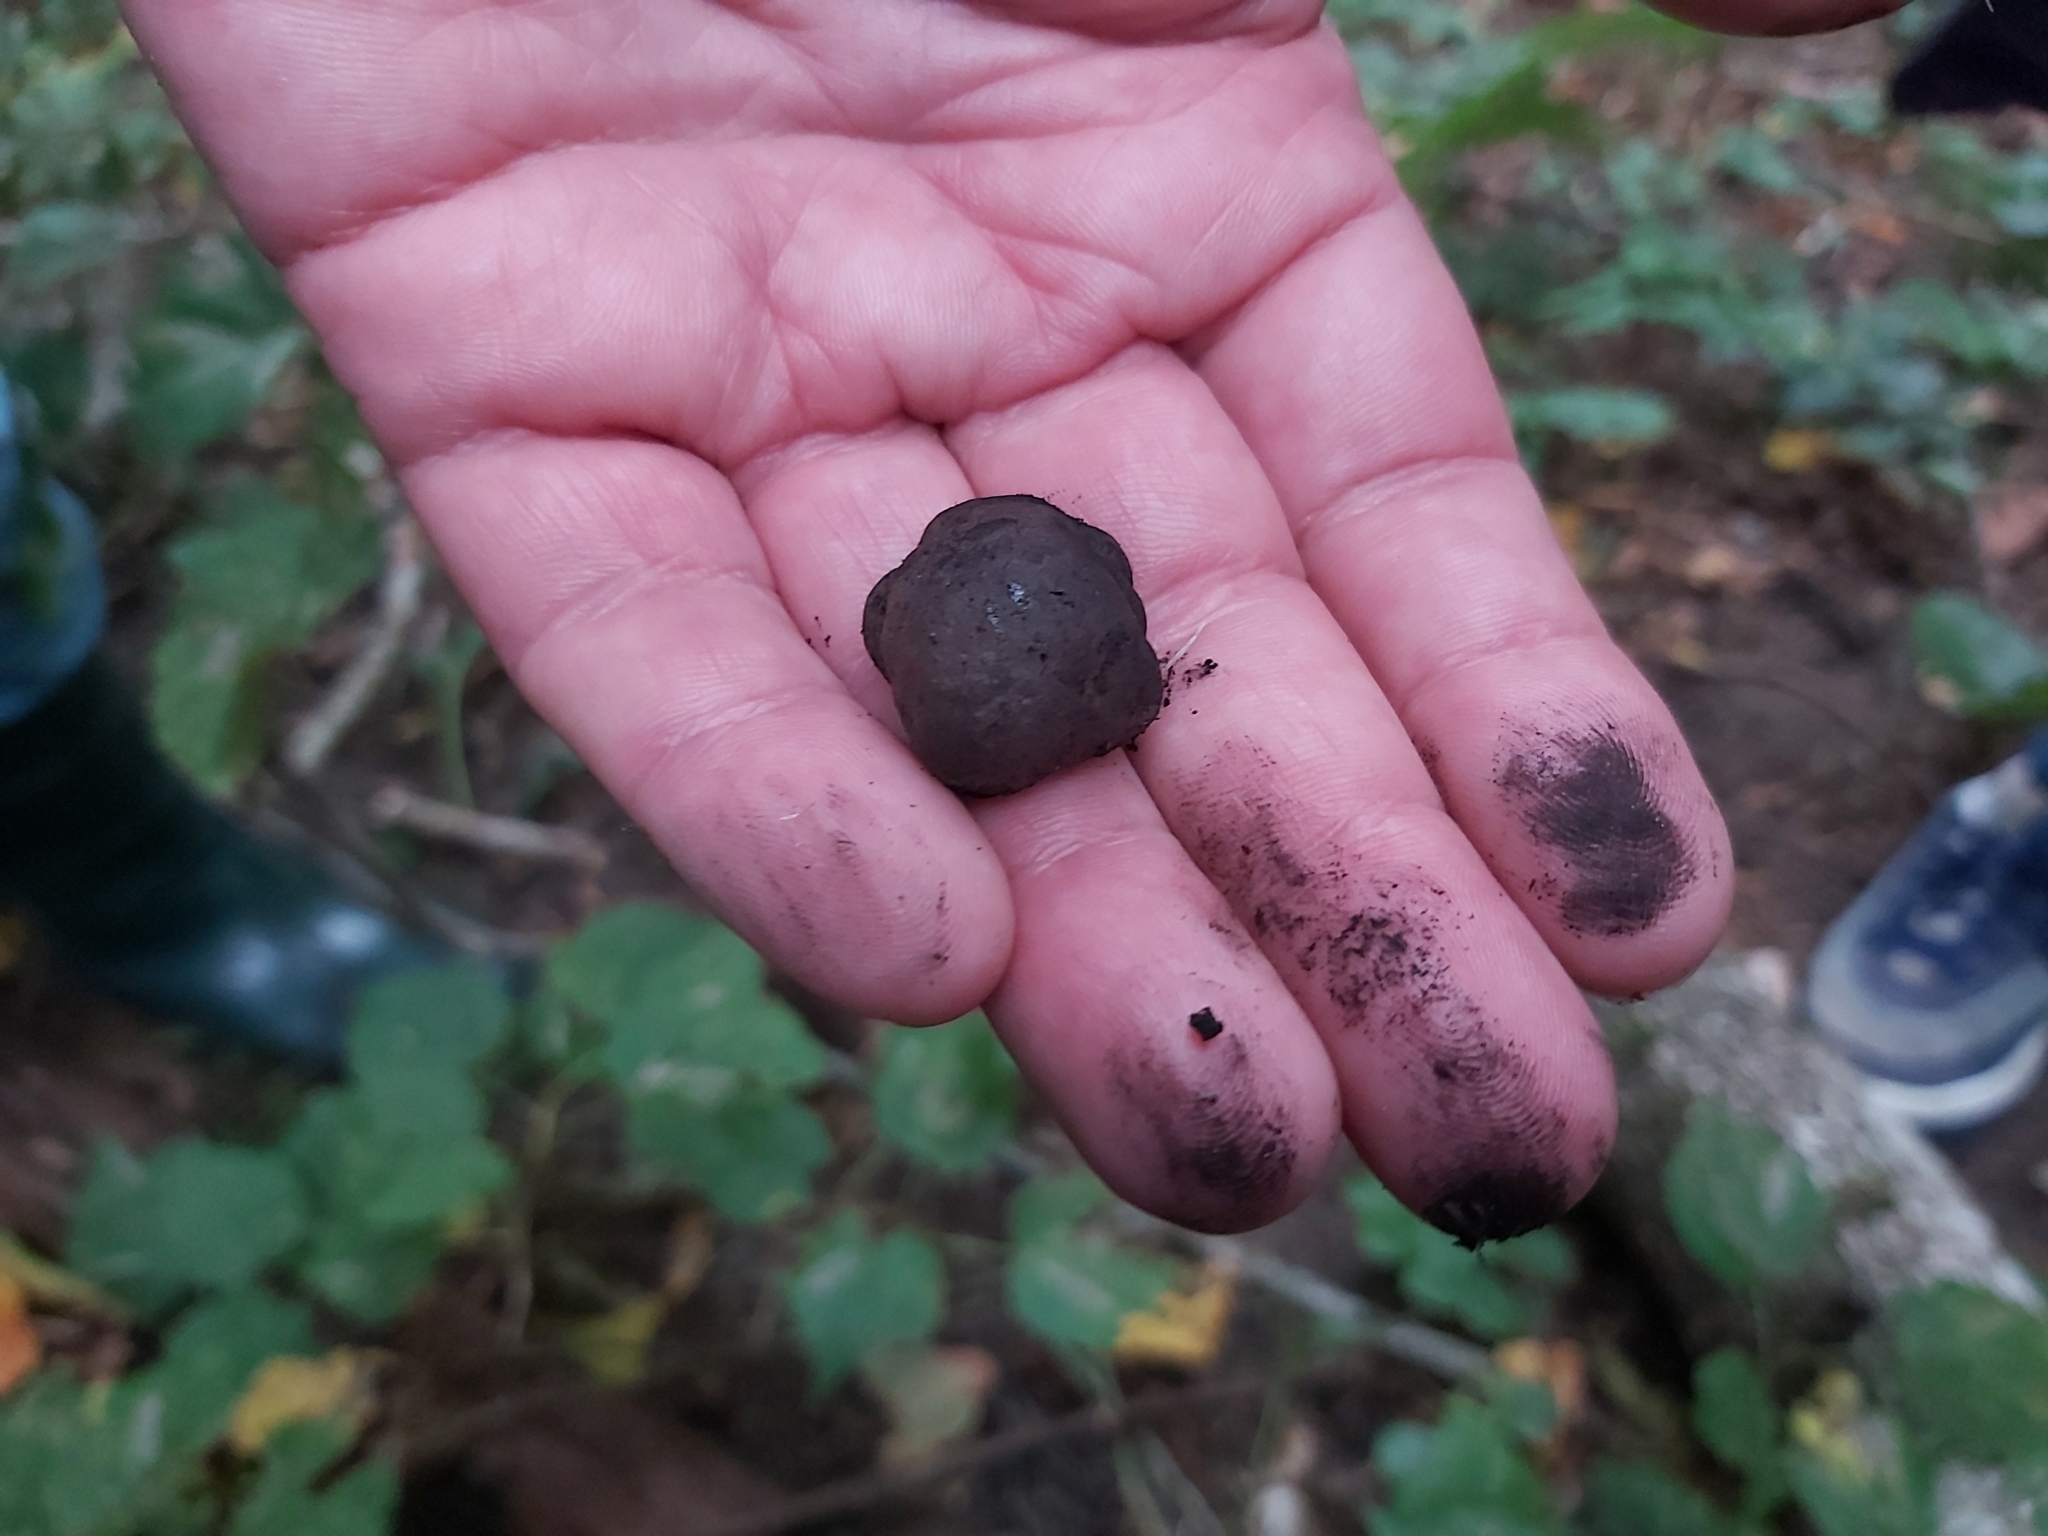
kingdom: Fungi
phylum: Ascomycota
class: Sordariomycetes
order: Xylariales
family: Hypoxylaceae
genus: Daldinia
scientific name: Daldinia concentrica
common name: Cramp balls
